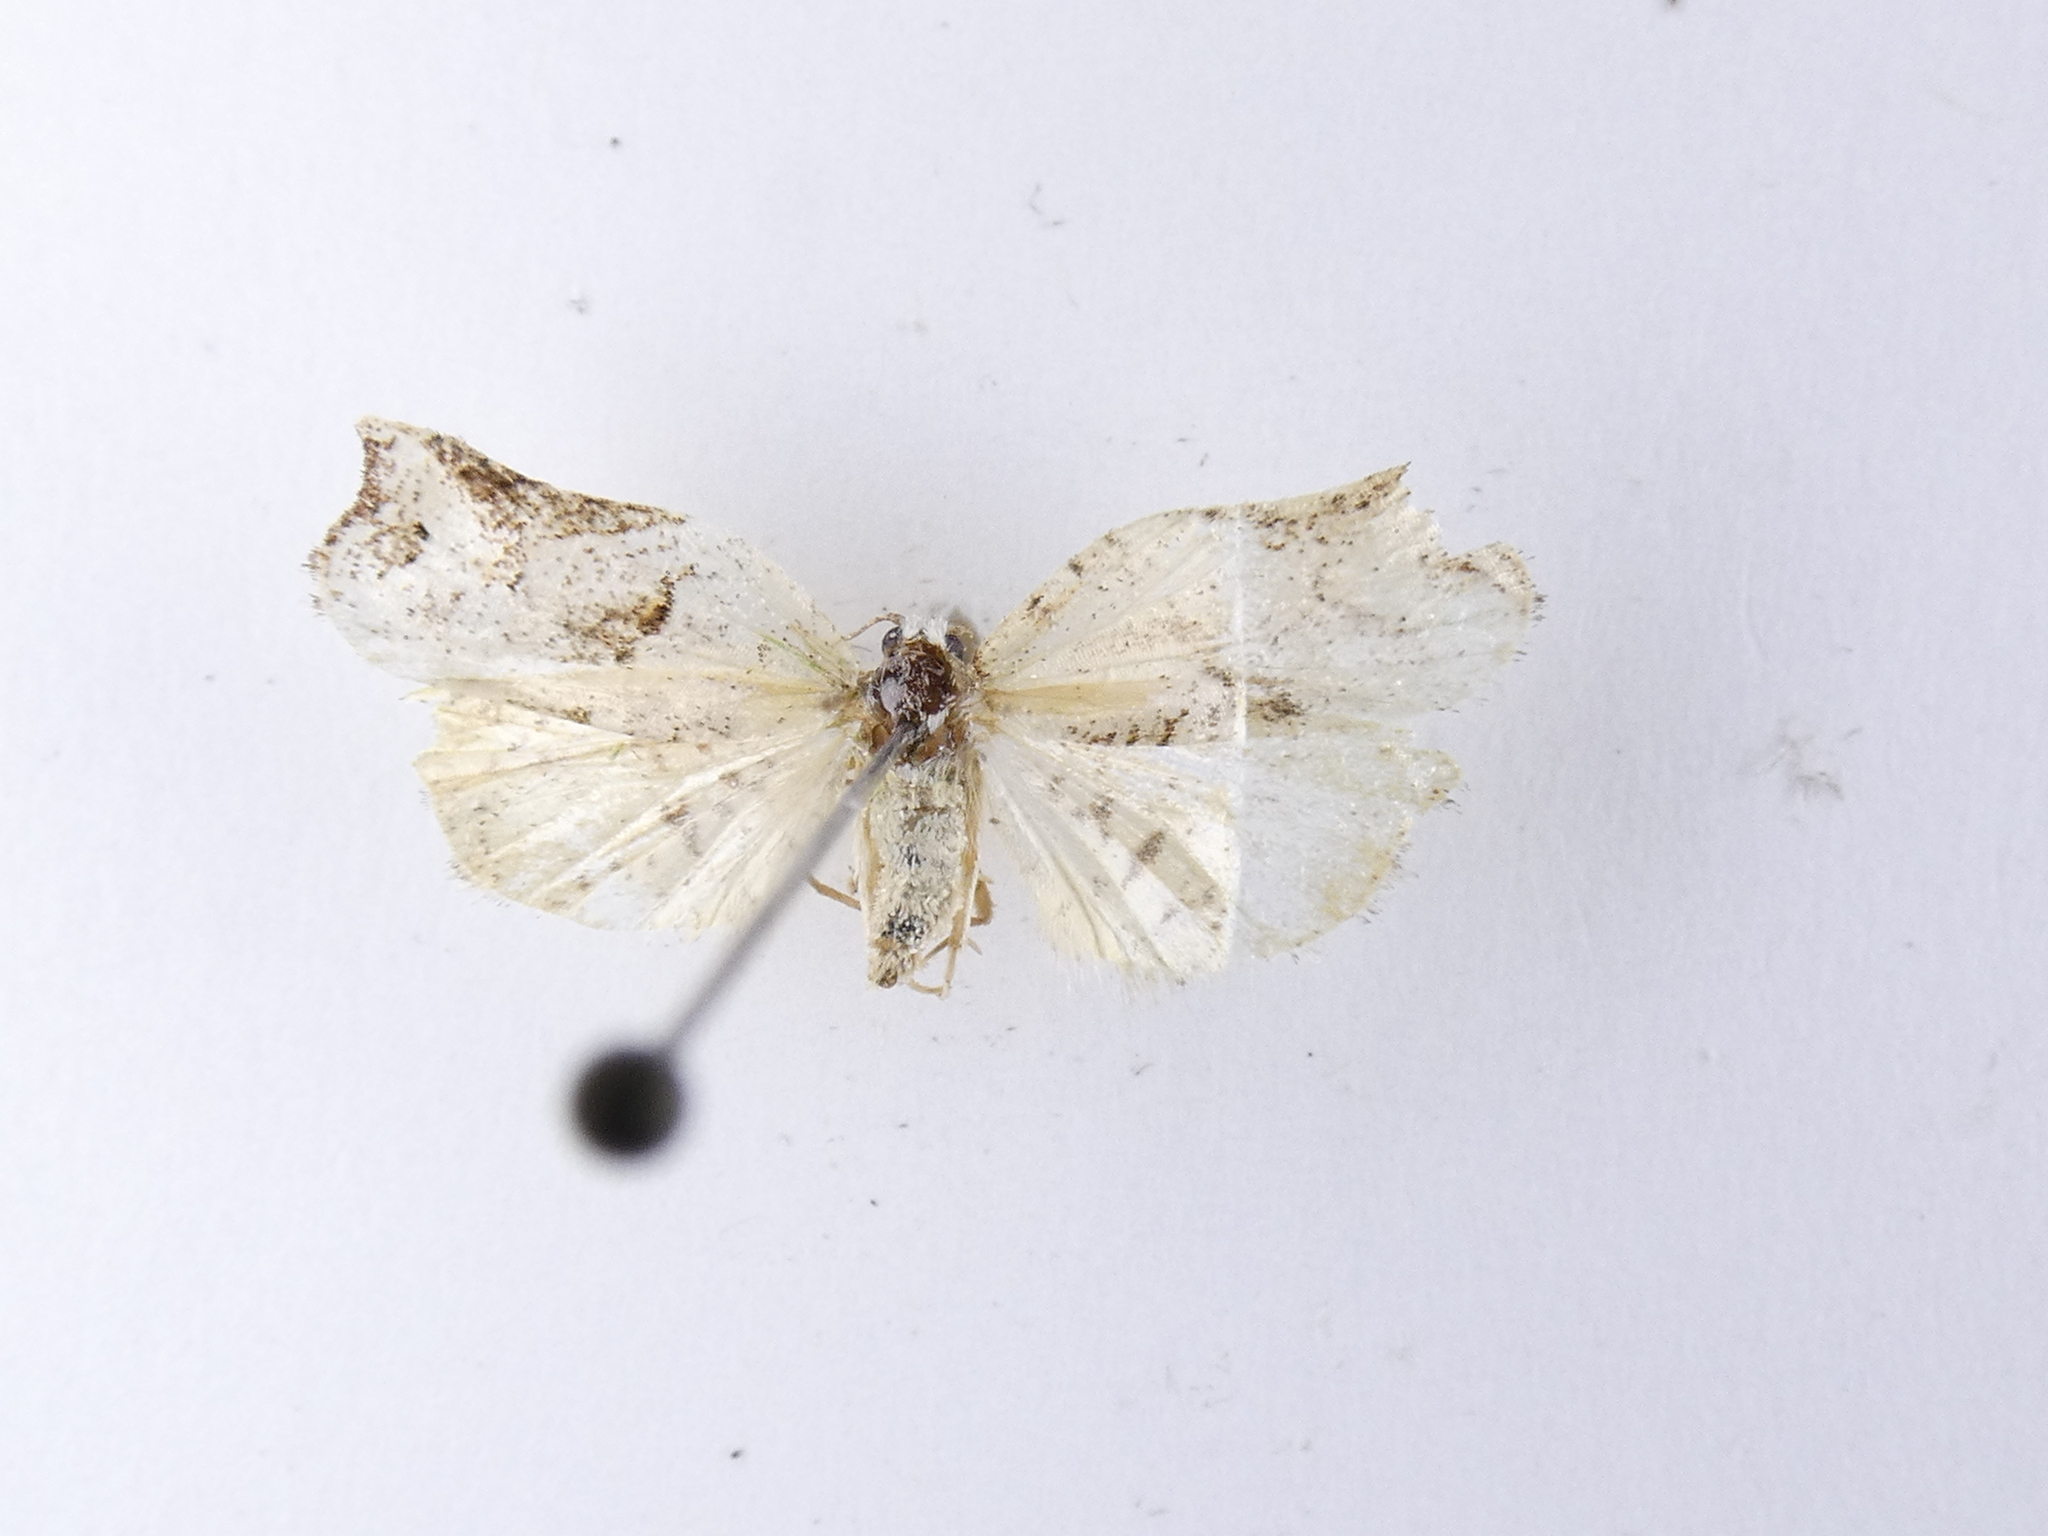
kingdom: Animalia
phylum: Arthropoda
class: Insecta
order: Lepidoptera
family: Tortricidae
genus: Harmologa
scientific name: Harmologa amplexana
